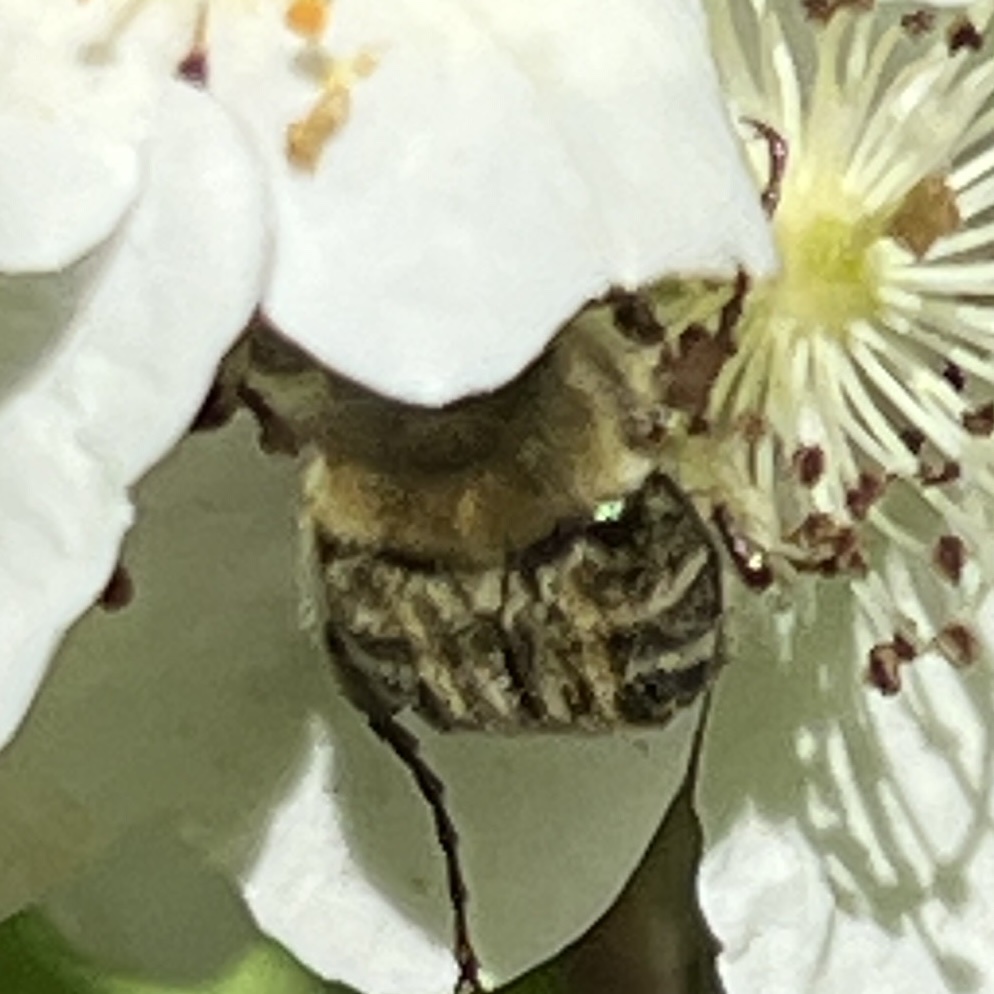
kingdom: Animalia
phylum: Arthropoda
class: Insecta
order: Coleoptera
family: Scarabaeidae
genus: Trichiotinus
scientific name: Trichiotinus assimilis
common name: Bee-mimic beetle
